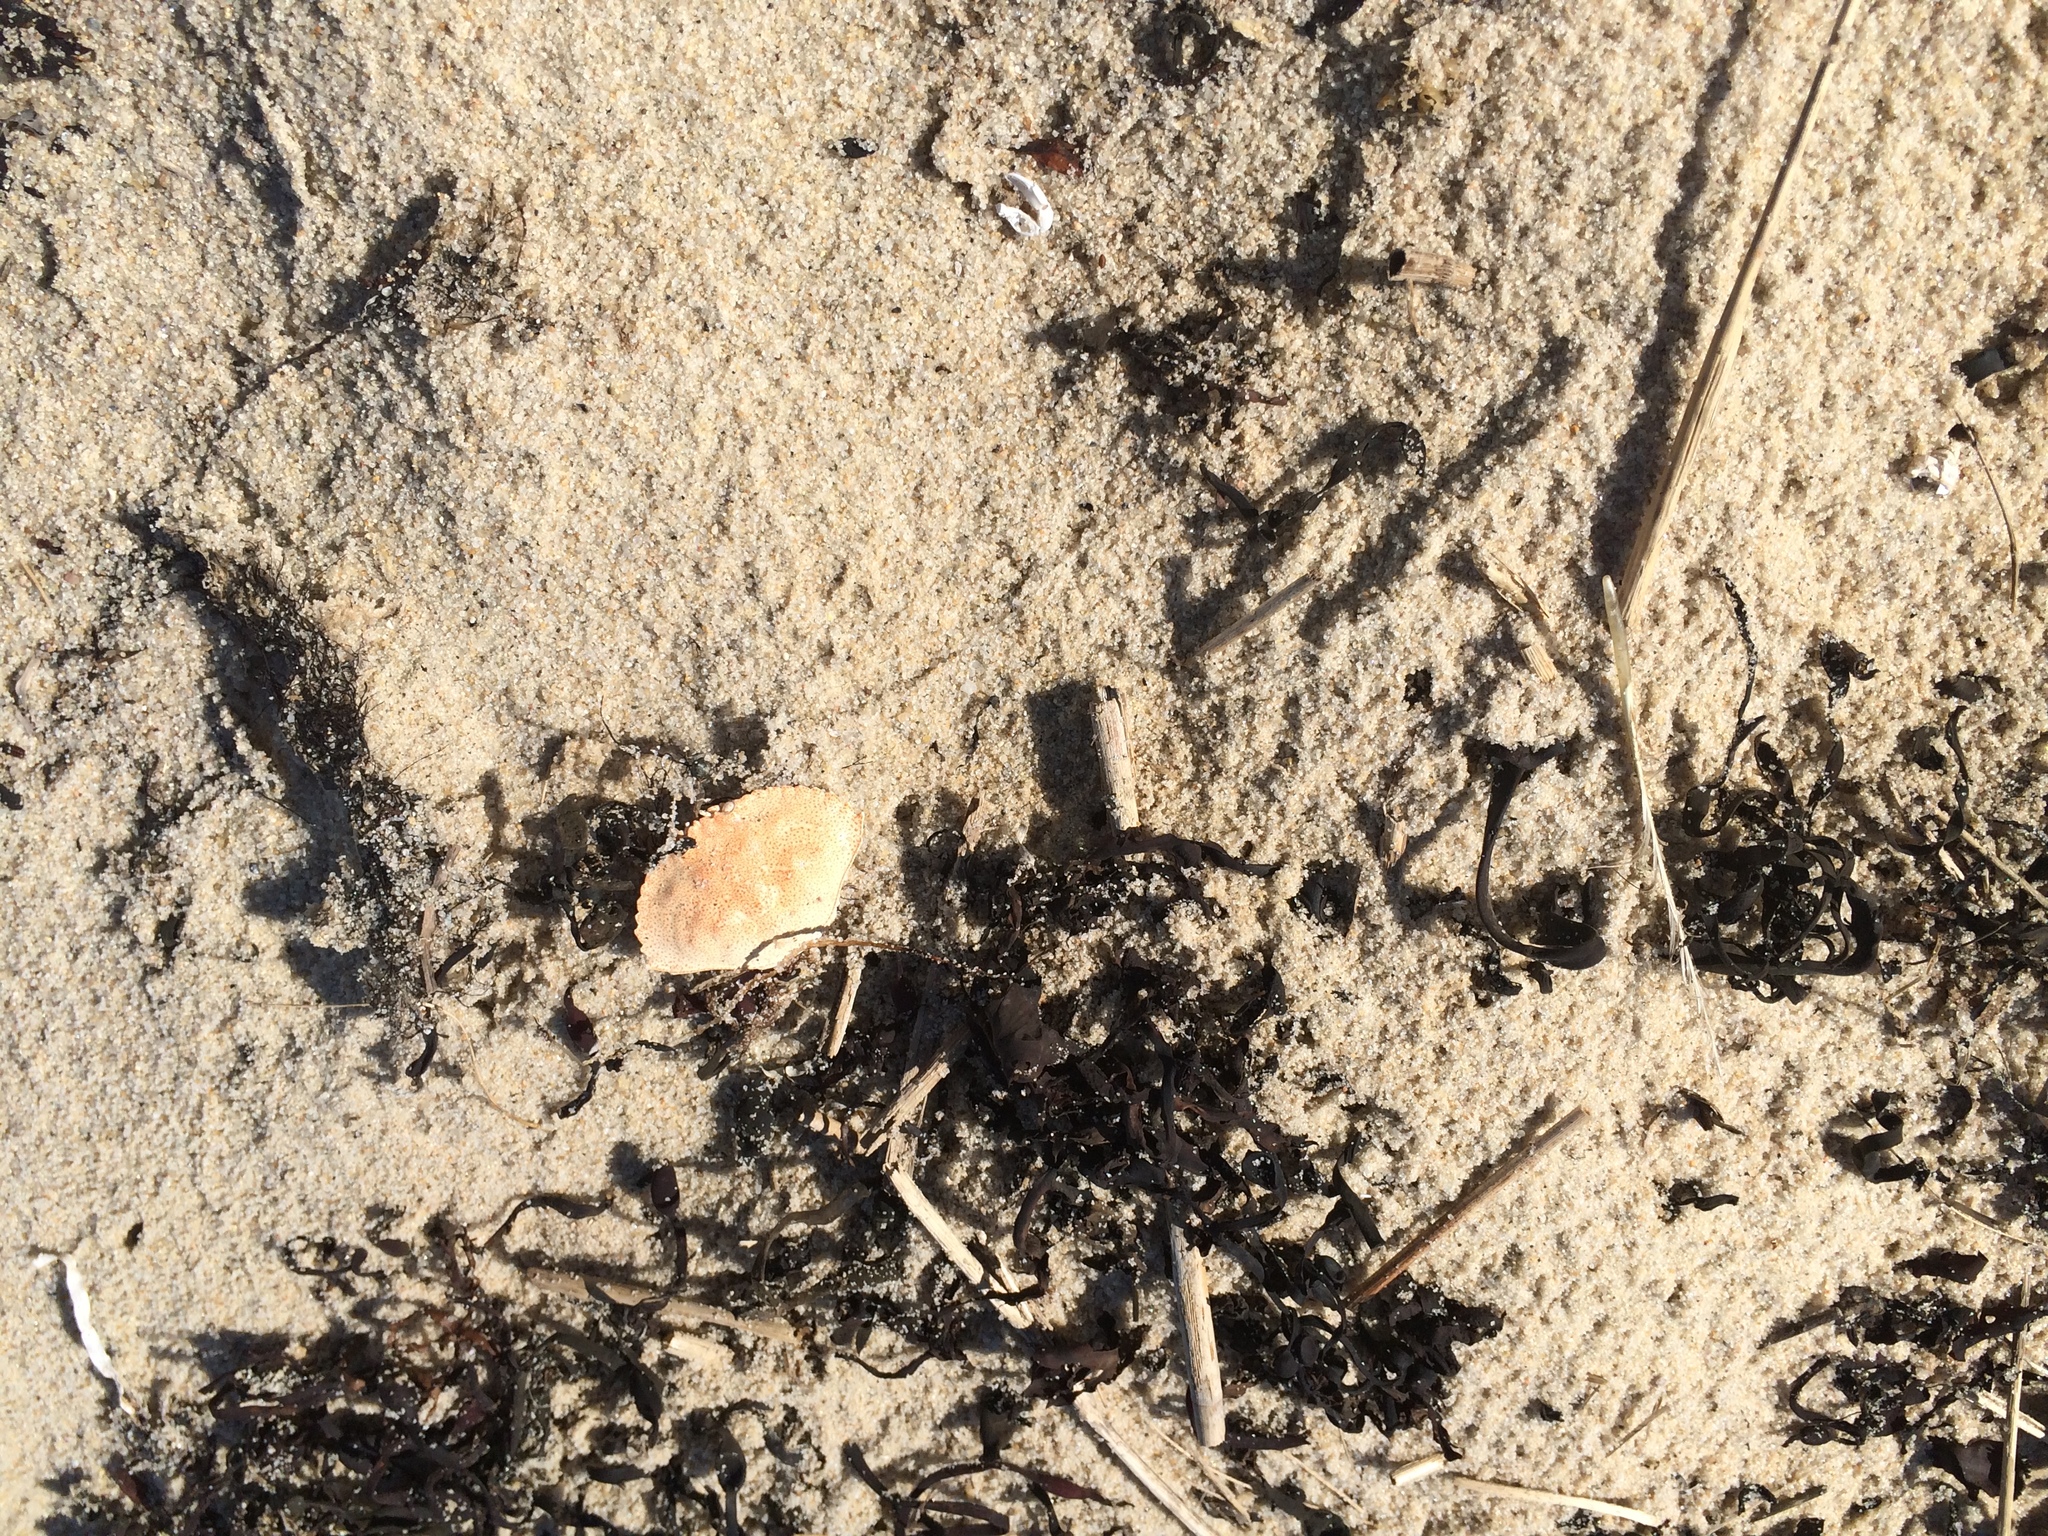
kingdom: Animalia
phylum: Arthropoda
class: Malacostraca
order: Decapoda
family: Cancridae
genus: Cancer
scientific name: Cancer irroratus
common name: Atlantic rock crab
